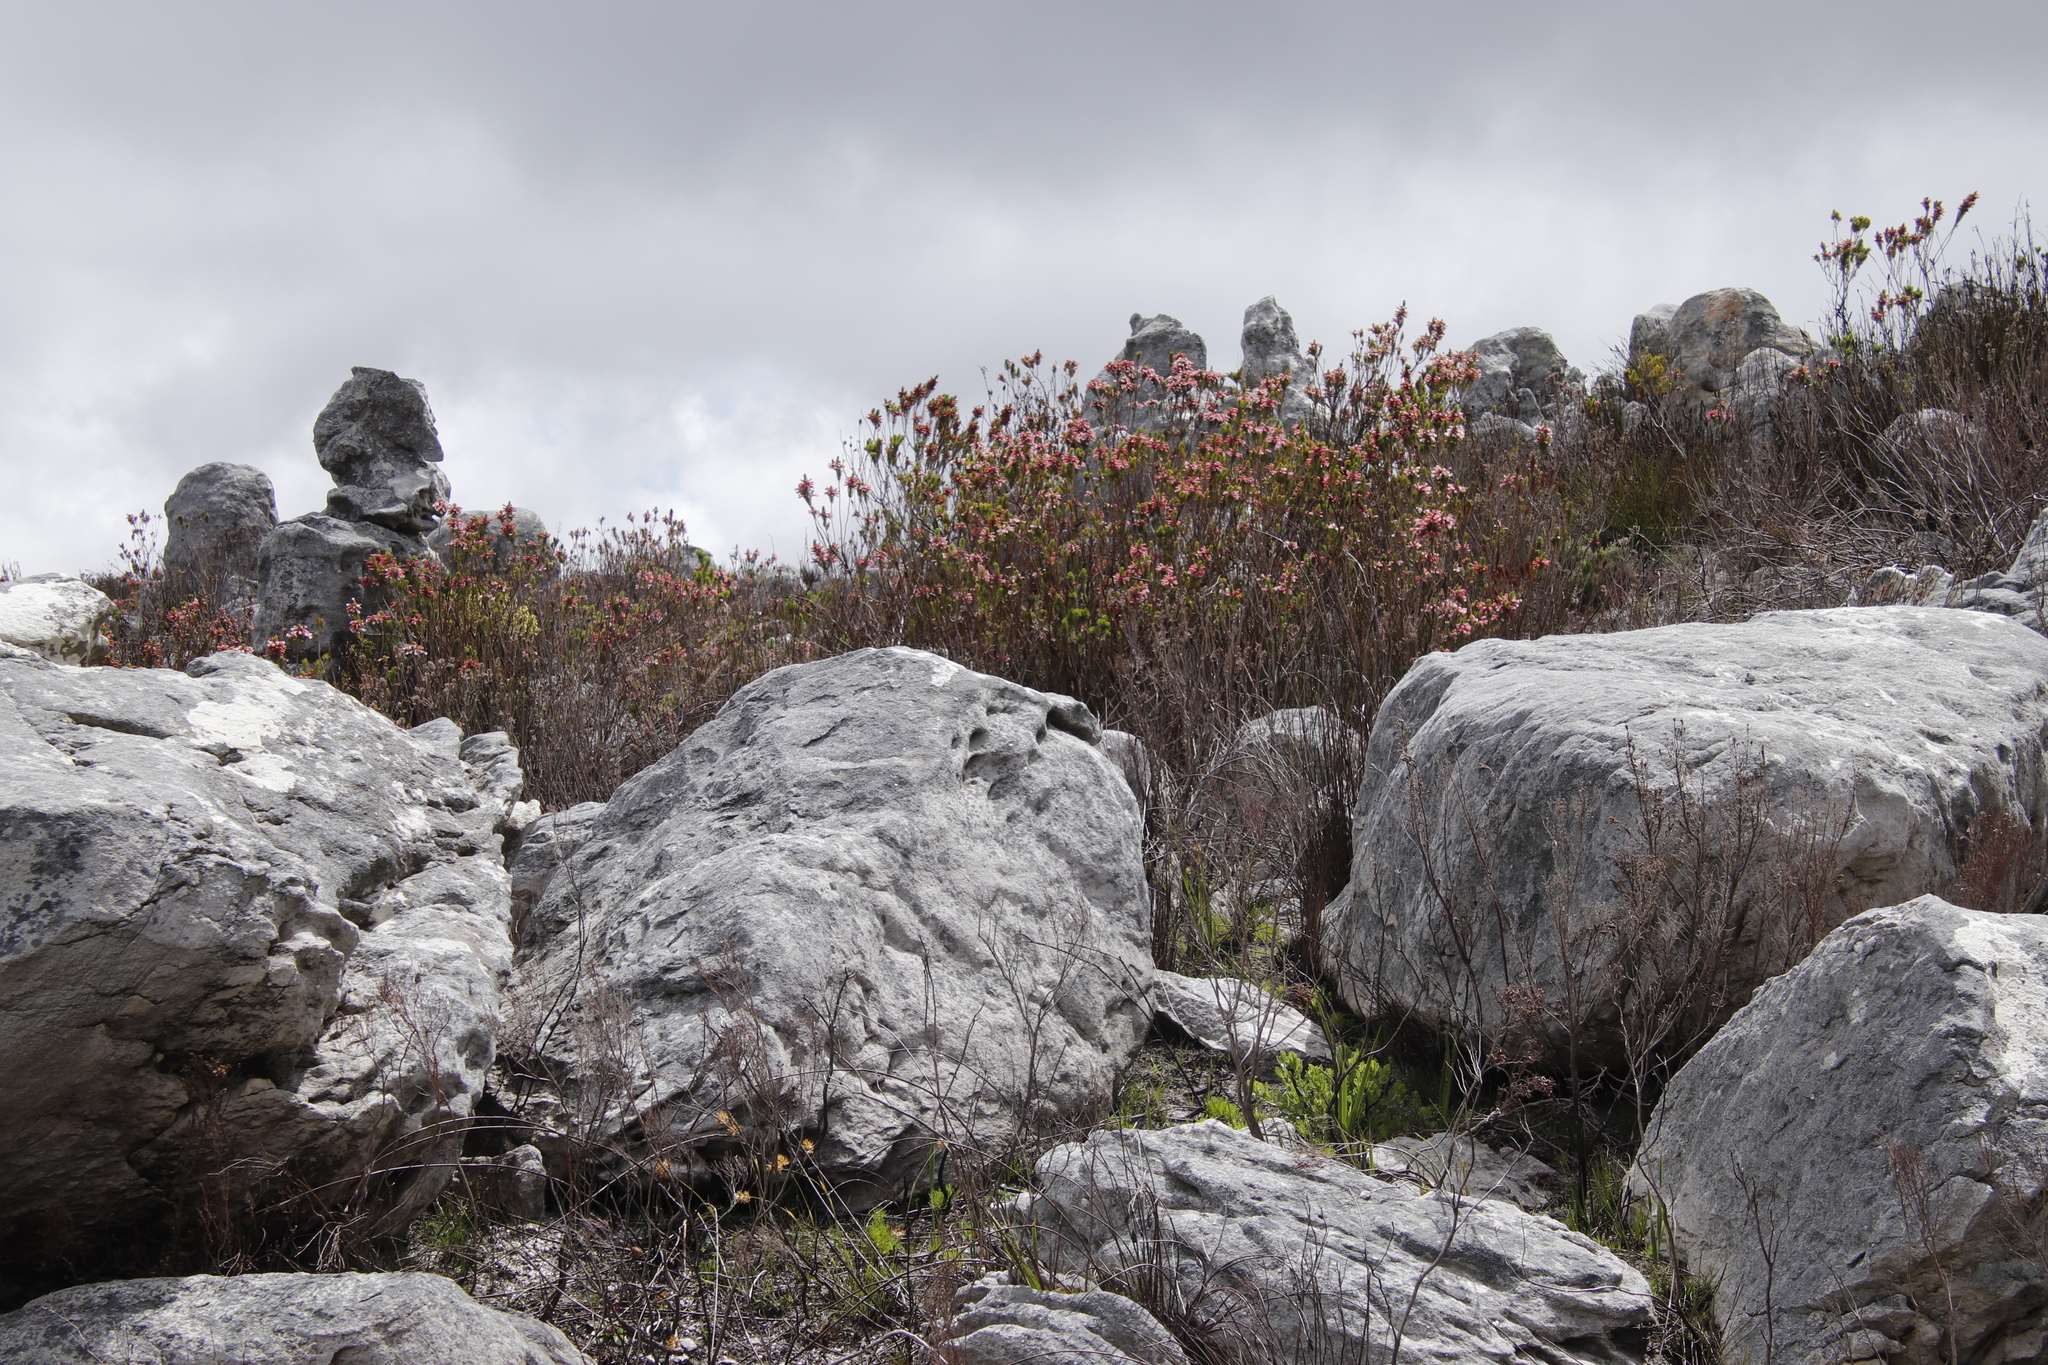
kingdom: Plantae
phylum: Tracheophyta
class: Magnoliopsida
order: Ericales
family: Ericaceae
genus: Erica
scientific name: Erica viscaria
